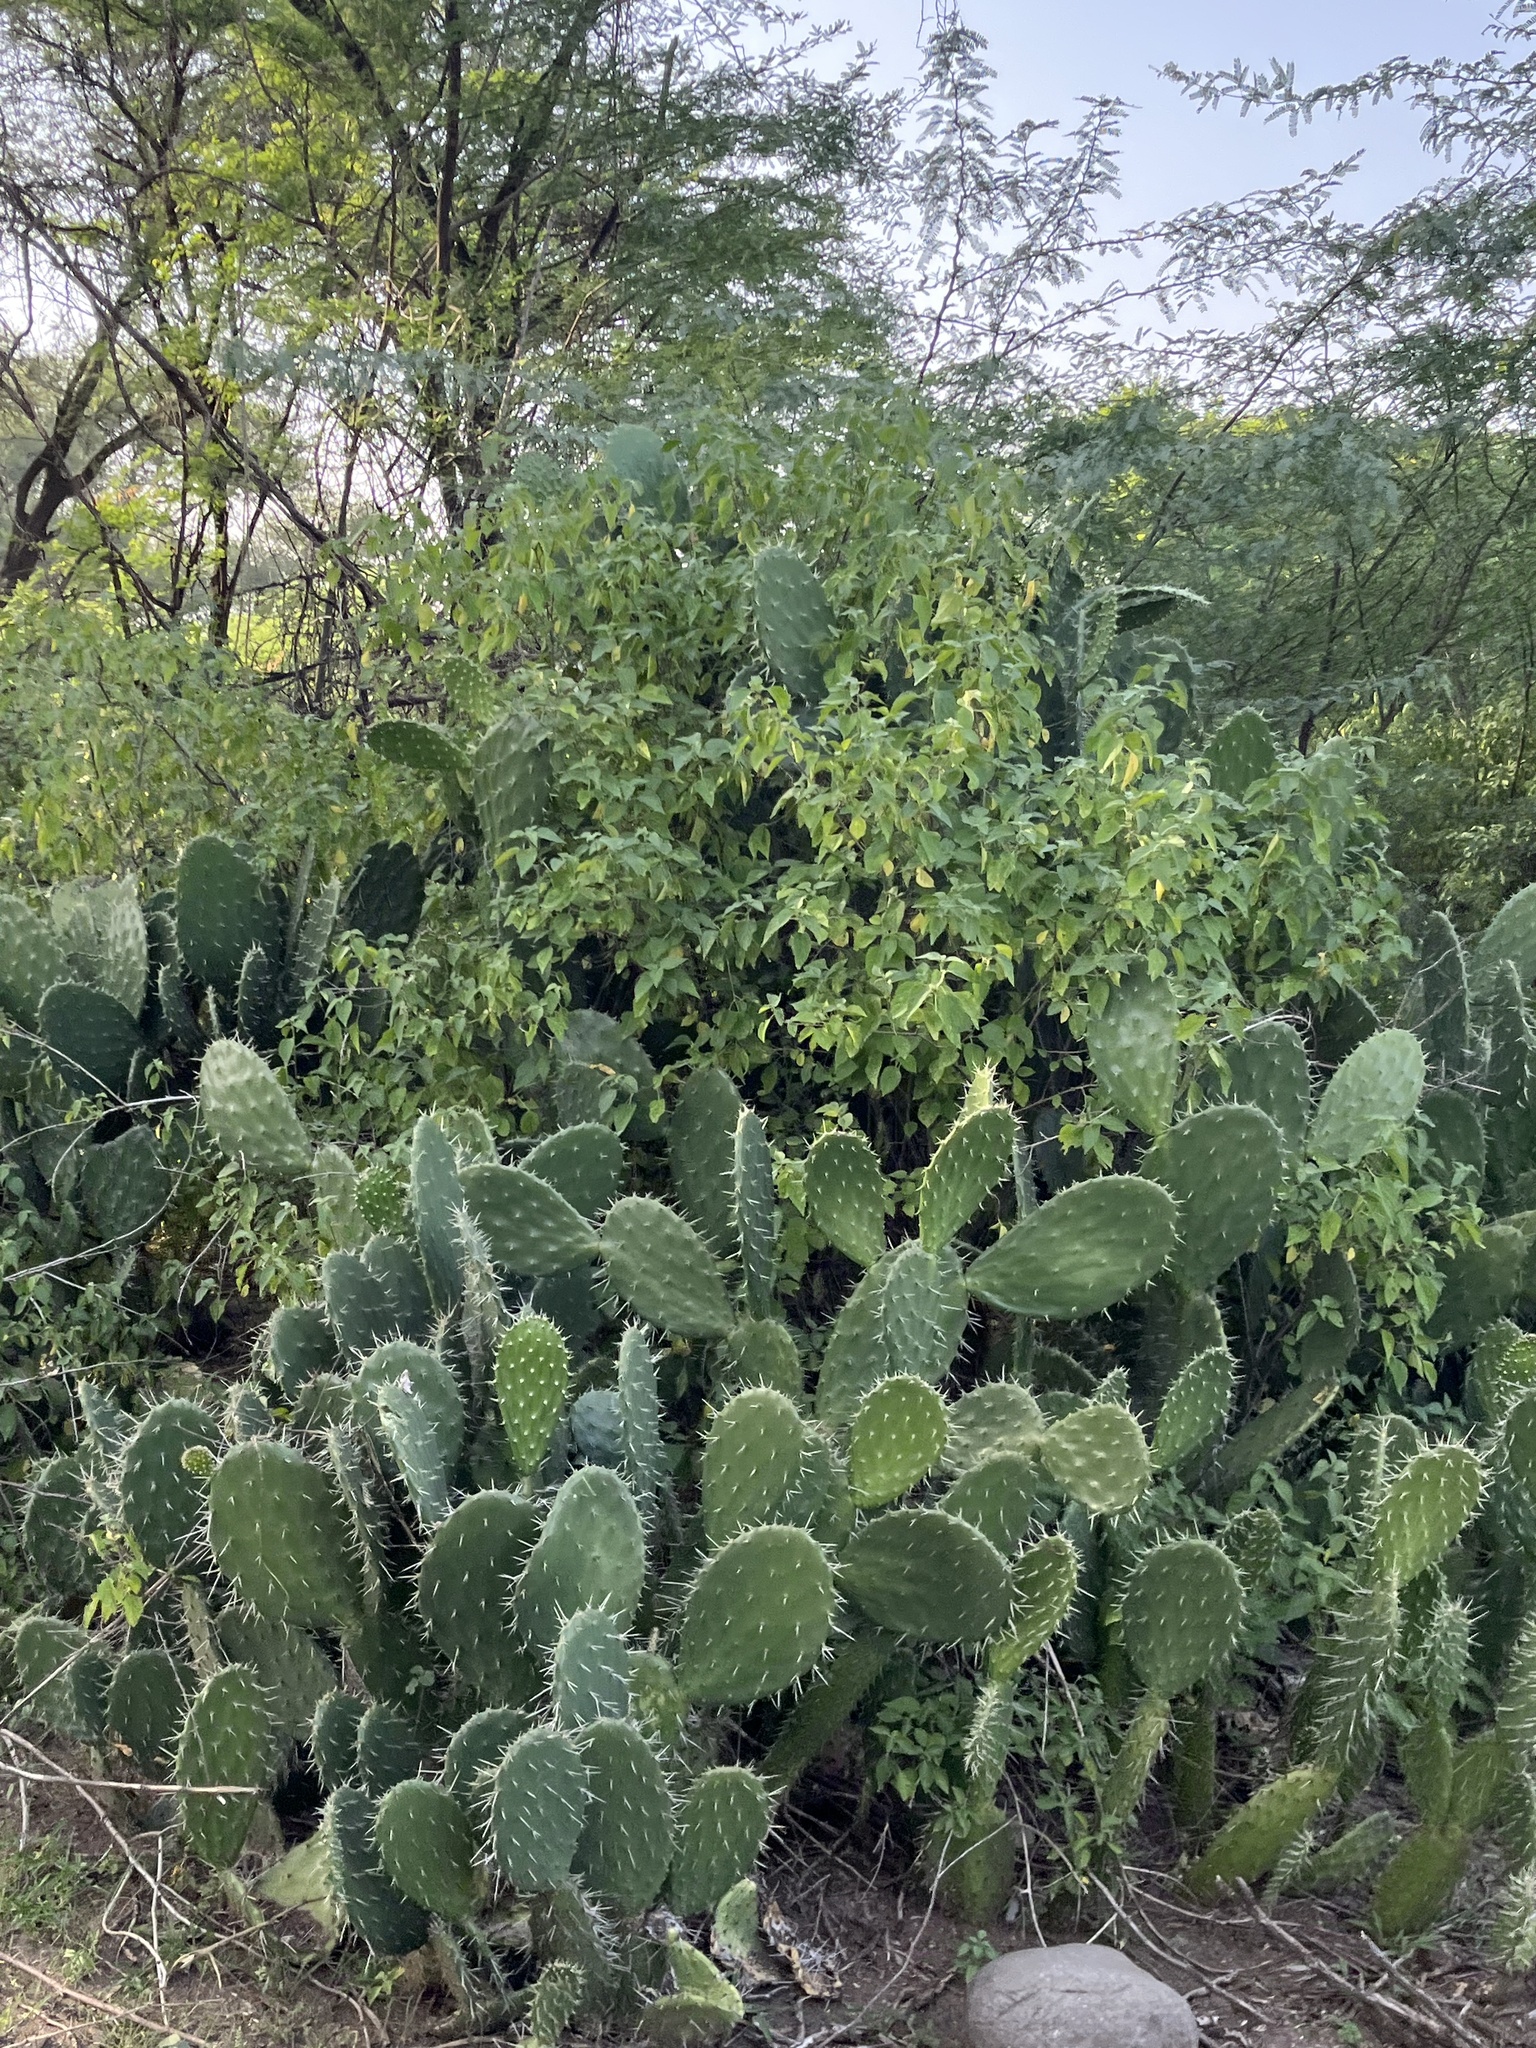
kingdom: Plantae
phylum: Tracheophyta
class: Magnoliopsida
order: Caryophyllales
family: Cactaceae
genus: Opuntia
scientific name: Opuntia ficus-indica
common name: Barbary fig
